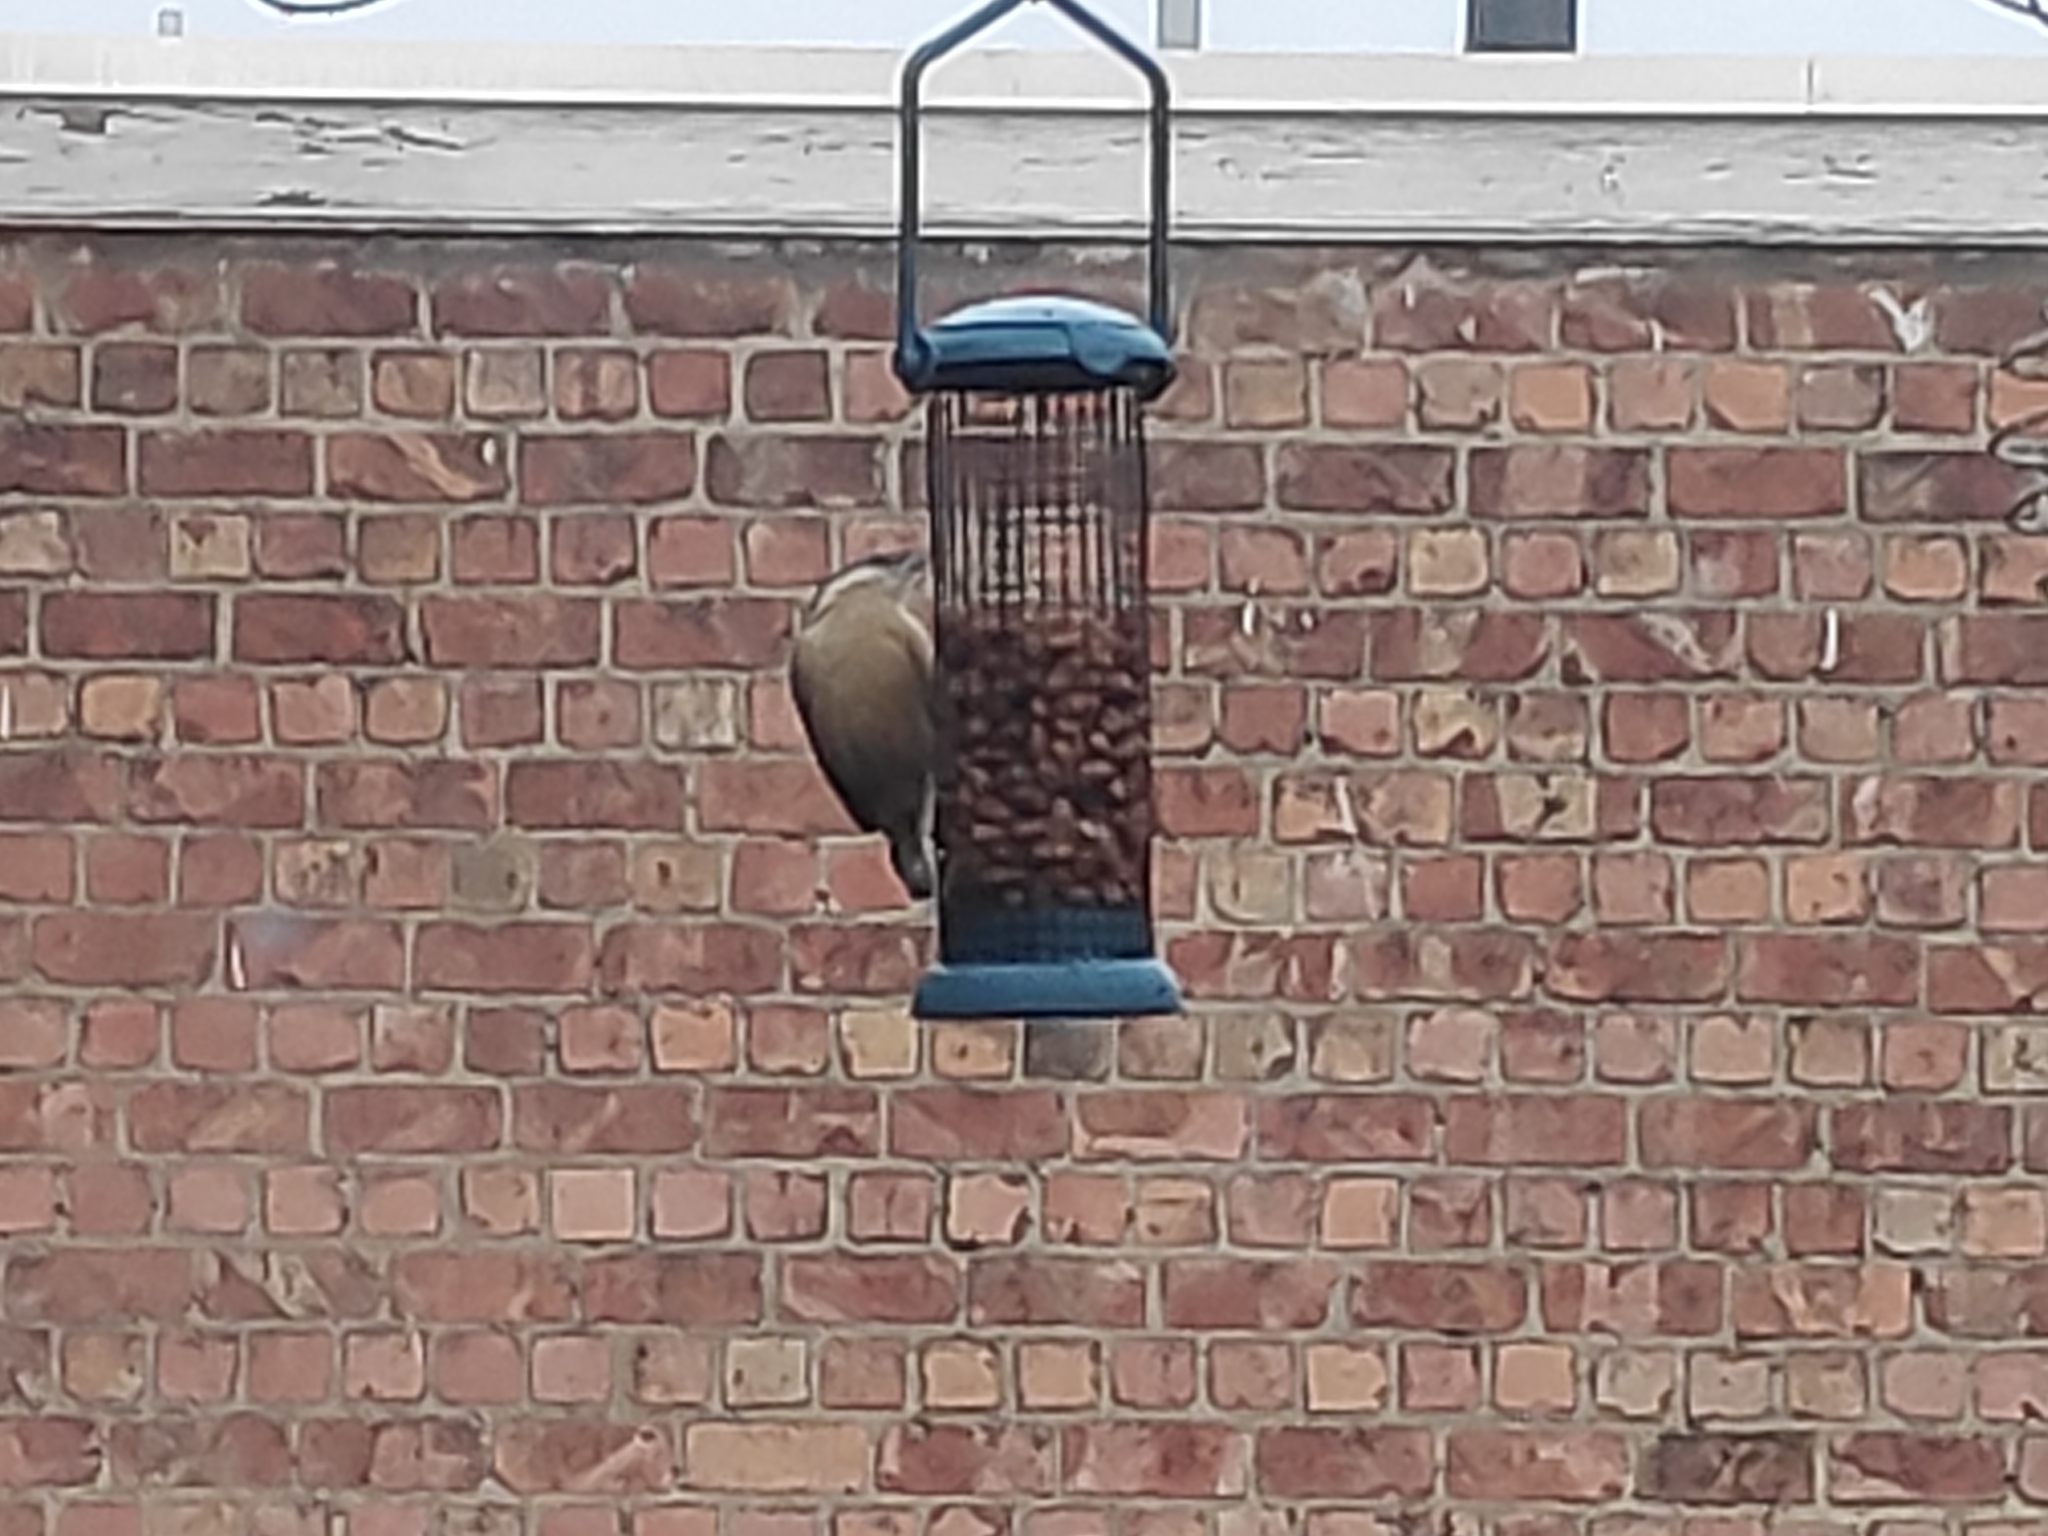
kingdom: Animalia
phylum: Chordata
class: Aves
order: Passeriformes
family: Sittidae
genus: Sitta
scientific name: Sitta europaea
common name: Eurasian nuthatch
